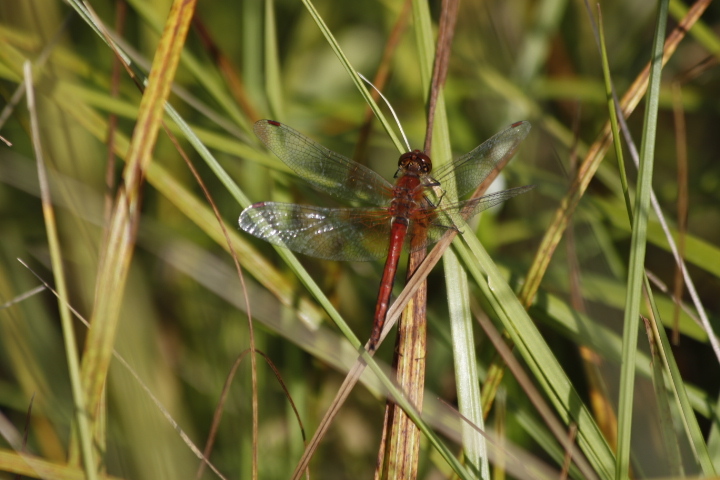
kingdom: Animalia
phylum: Arthropoda
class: Insecta
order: Odonata
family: Libellulidae
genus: Sympetrum
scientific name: Sympetrum flaveolum
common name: Yellow-winged darter
